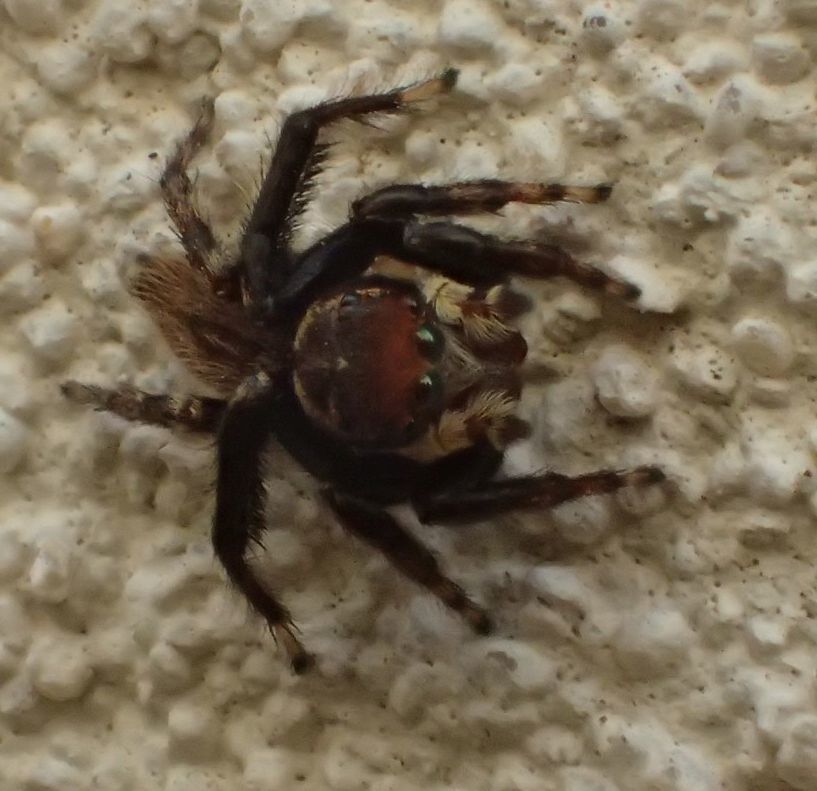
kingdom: Animalia
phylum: Arthropoda
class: Arachnida
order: Araneae
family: Salticidae
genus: Maratus
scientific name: Maratus griseus
